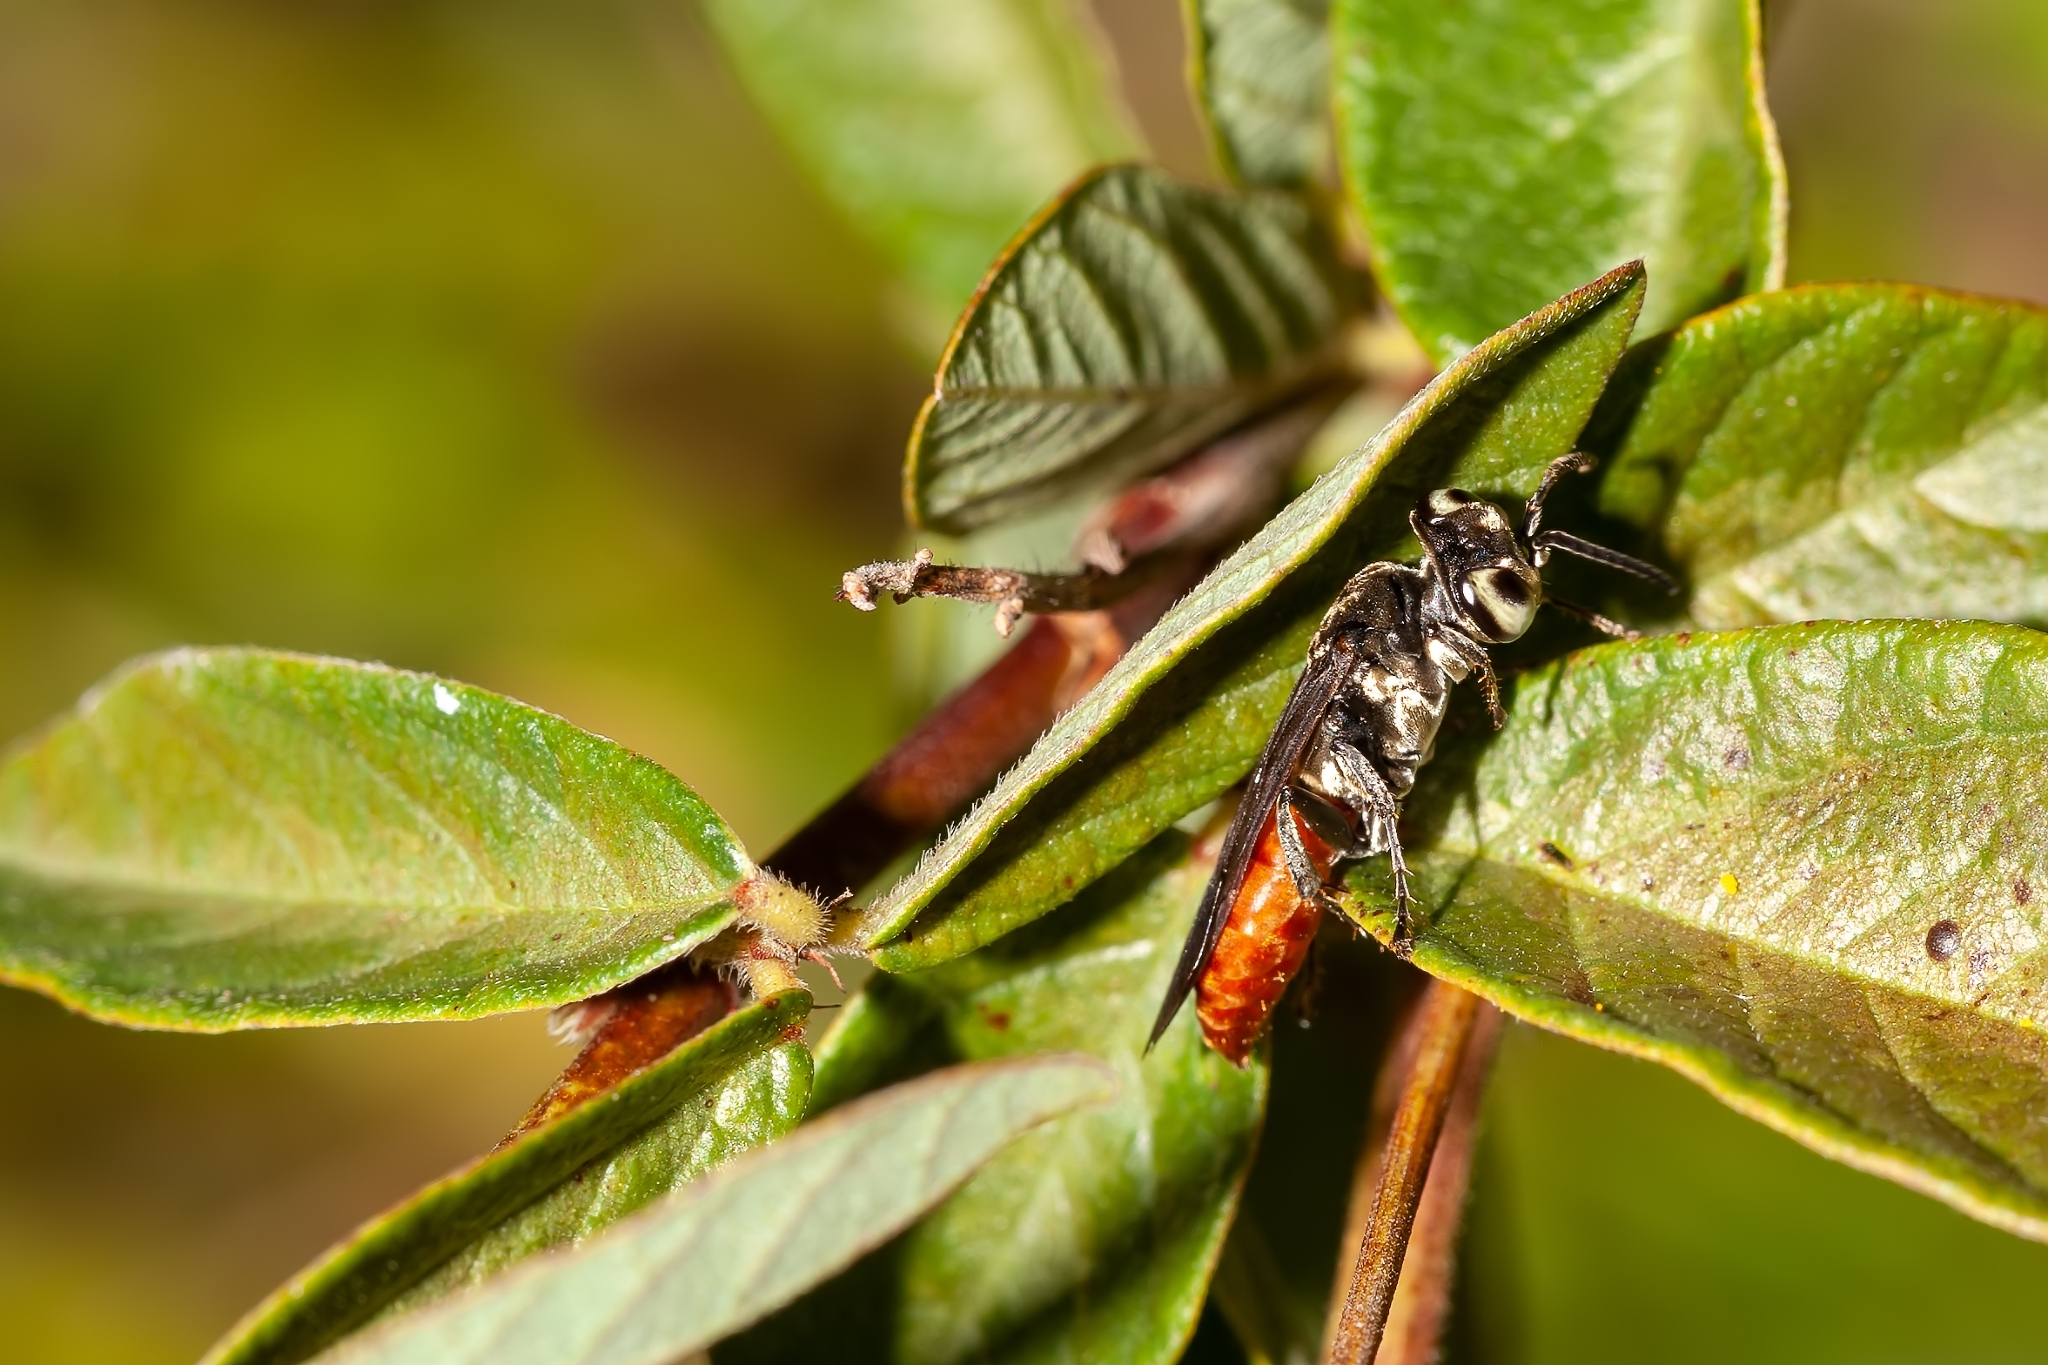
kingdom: Animalia
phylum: Arthropoda
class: Insecta
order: Hymenoptera
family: Crabronidae
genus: Larra
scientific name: Larra bicolor
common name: Wasp
